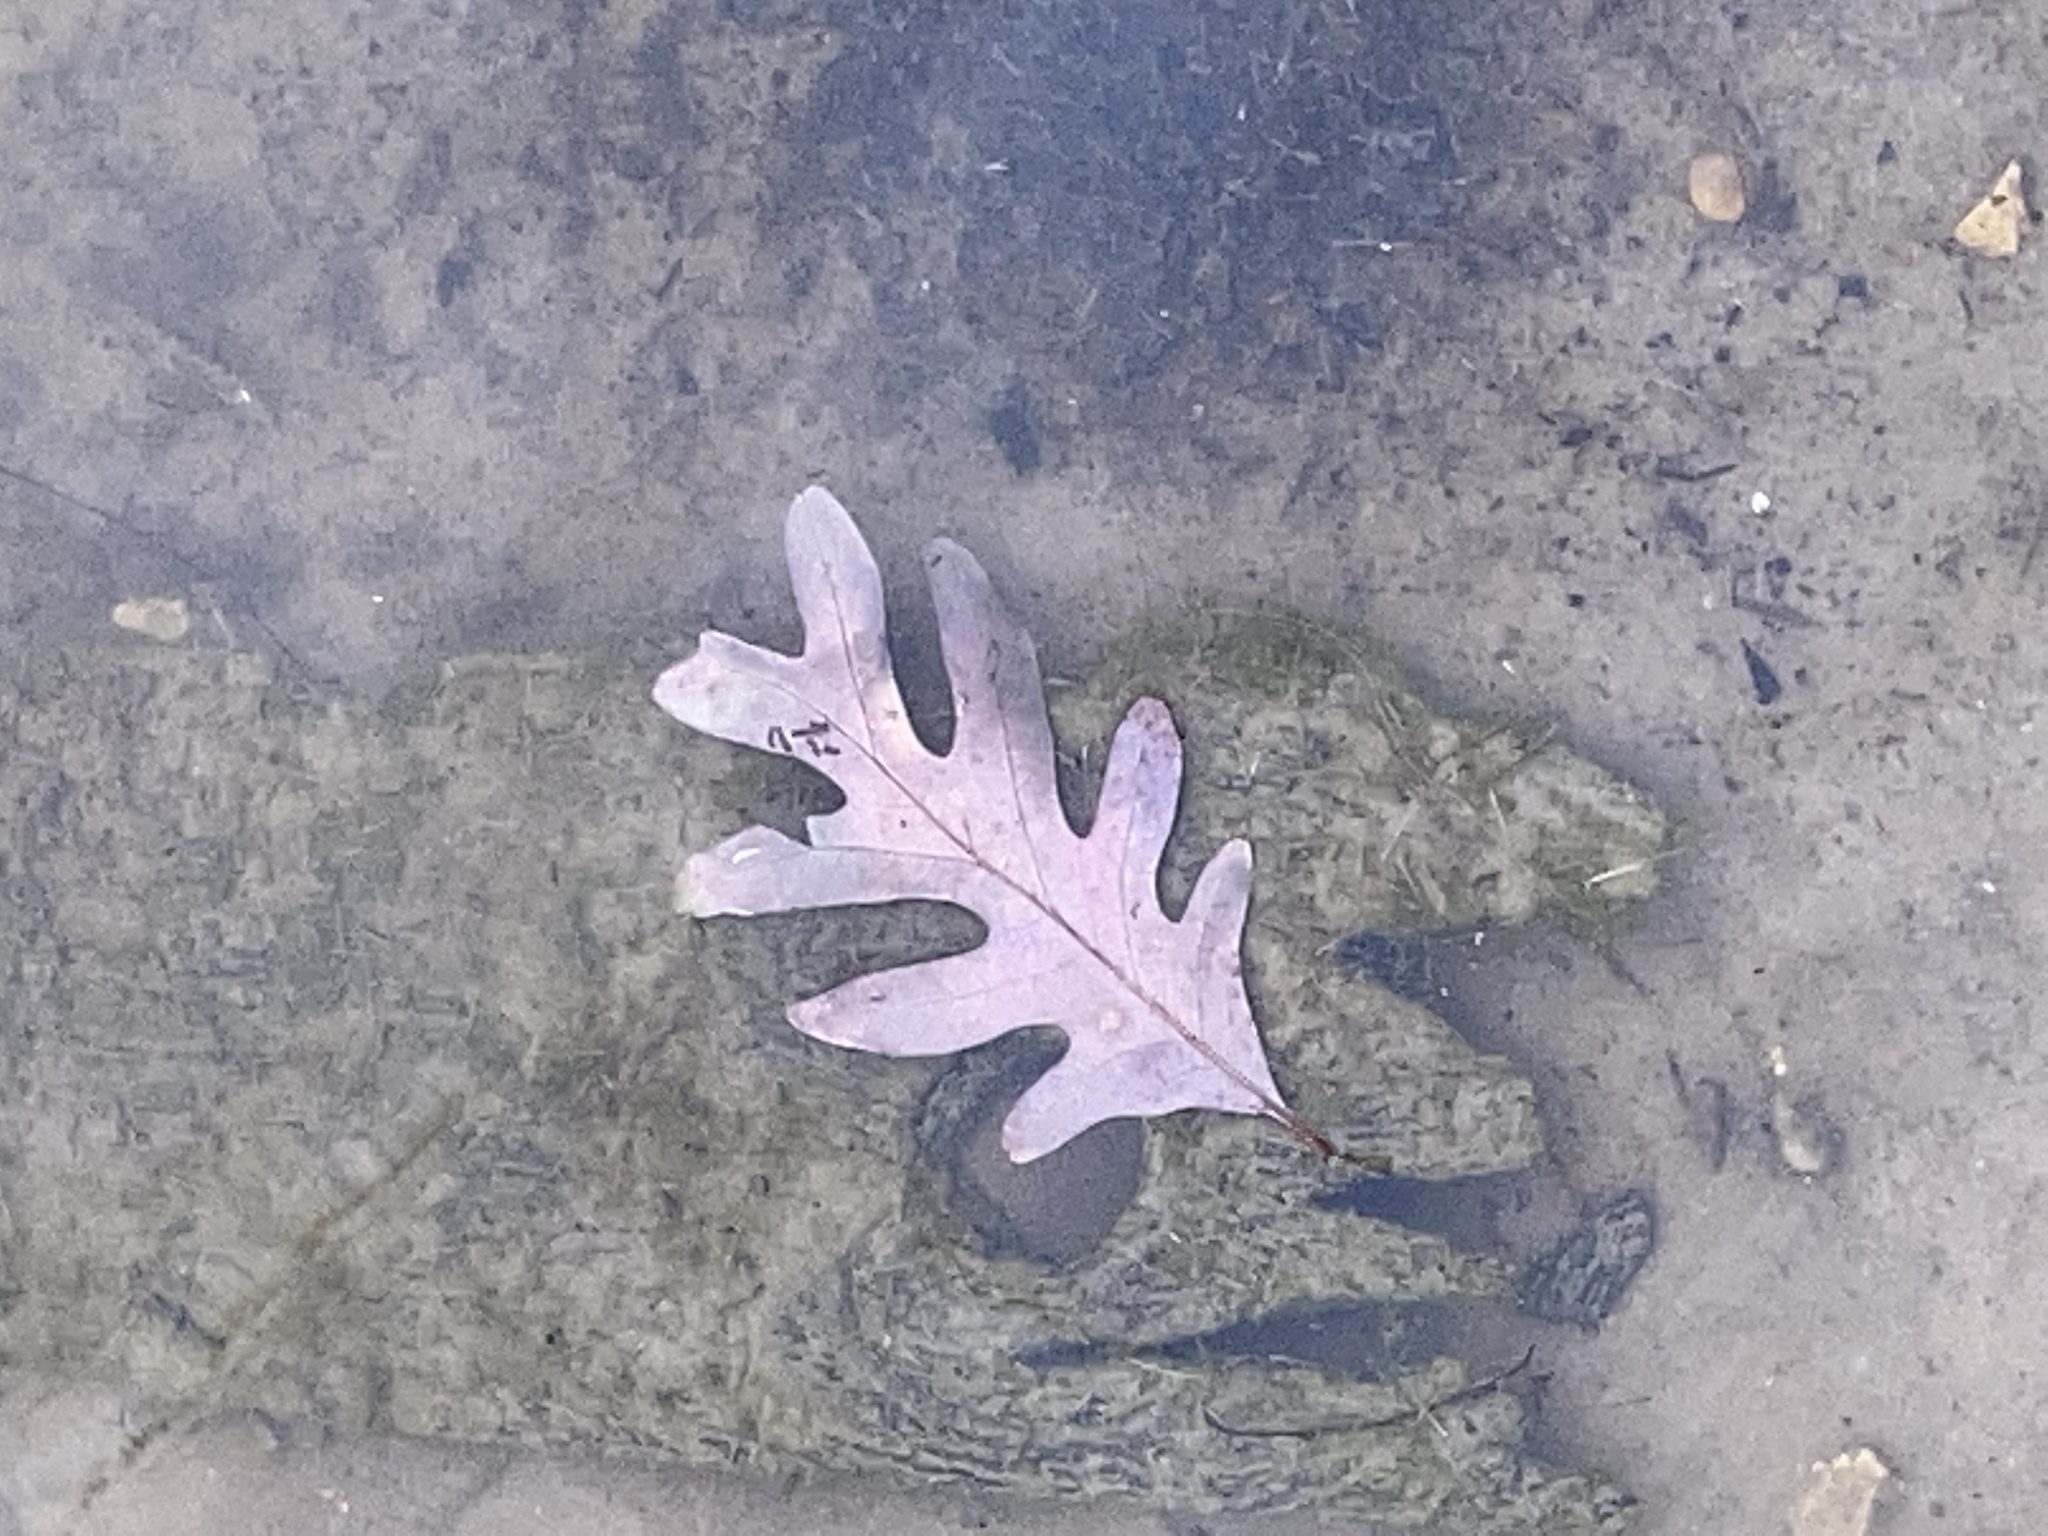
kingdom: Plantae
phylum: Tracheophyta
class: Magnoliopsida
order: Fagales
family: Fagaceae
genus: Quercus
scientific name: Quercus alba
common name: White oak
